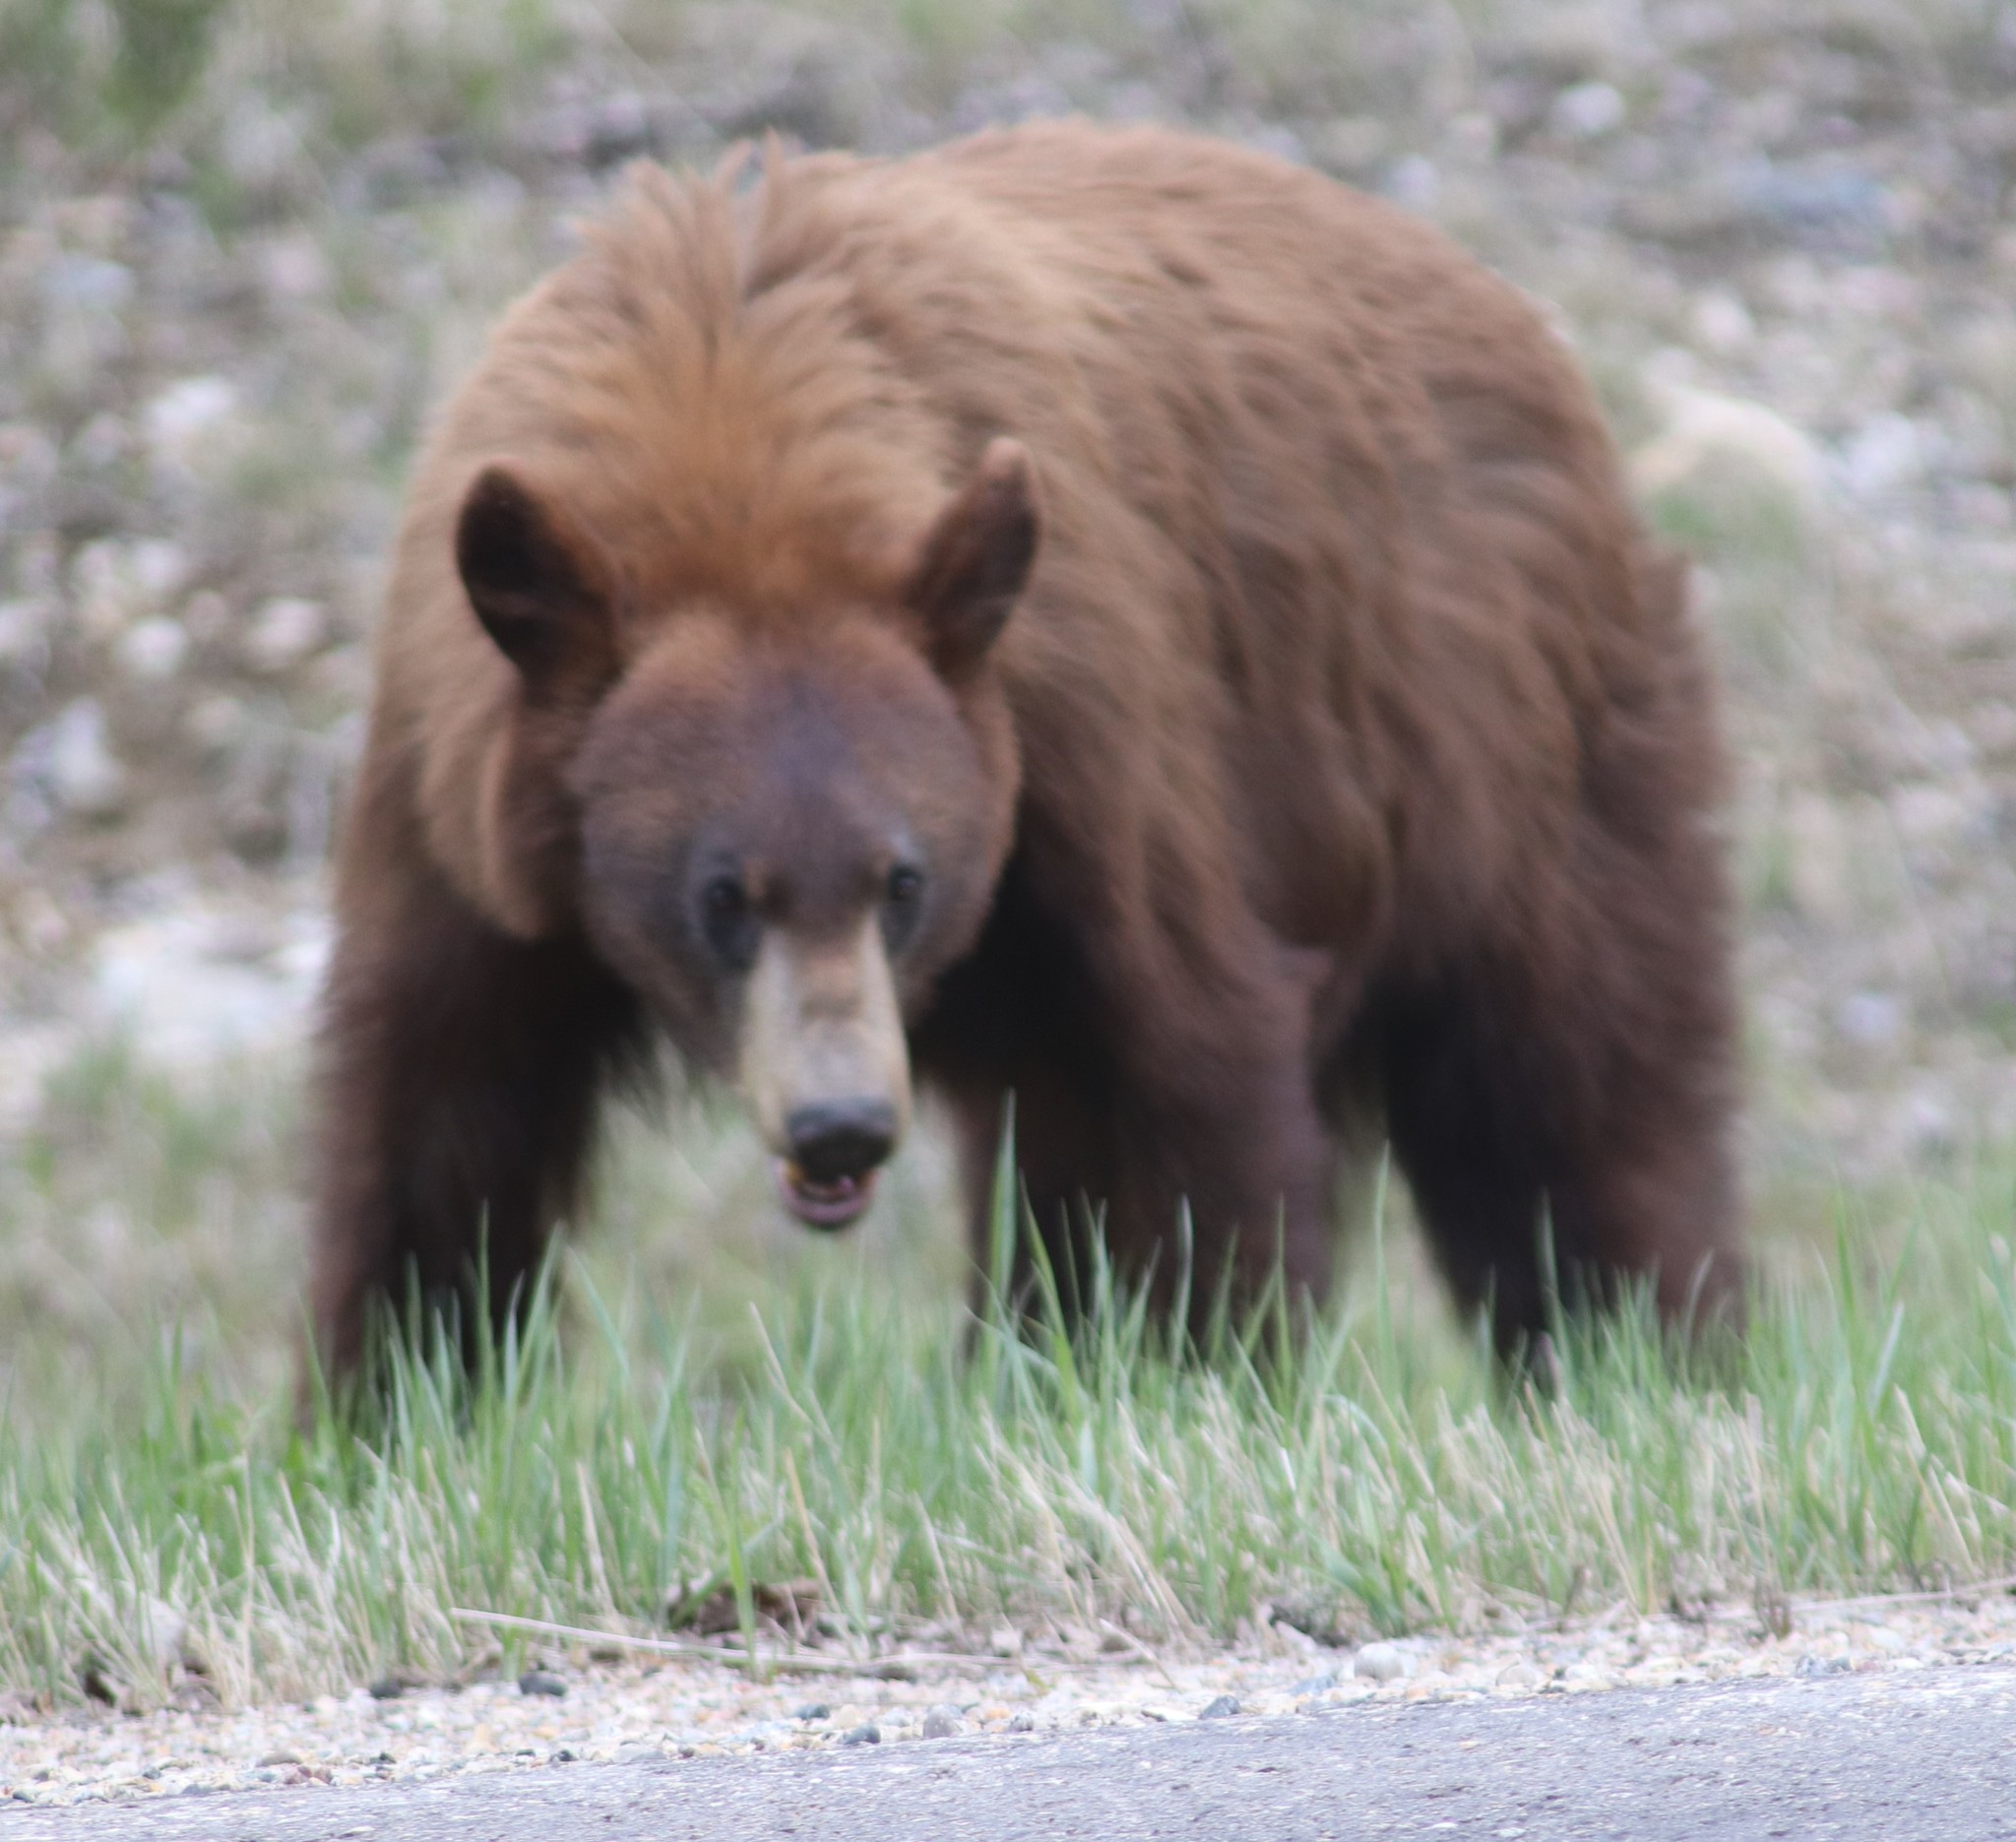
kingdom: Animalia
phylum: Chordata
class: Mammalia
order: Carnivora
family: Ursidae
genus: Ursus
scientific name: Ursus americanus
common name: American black bear
